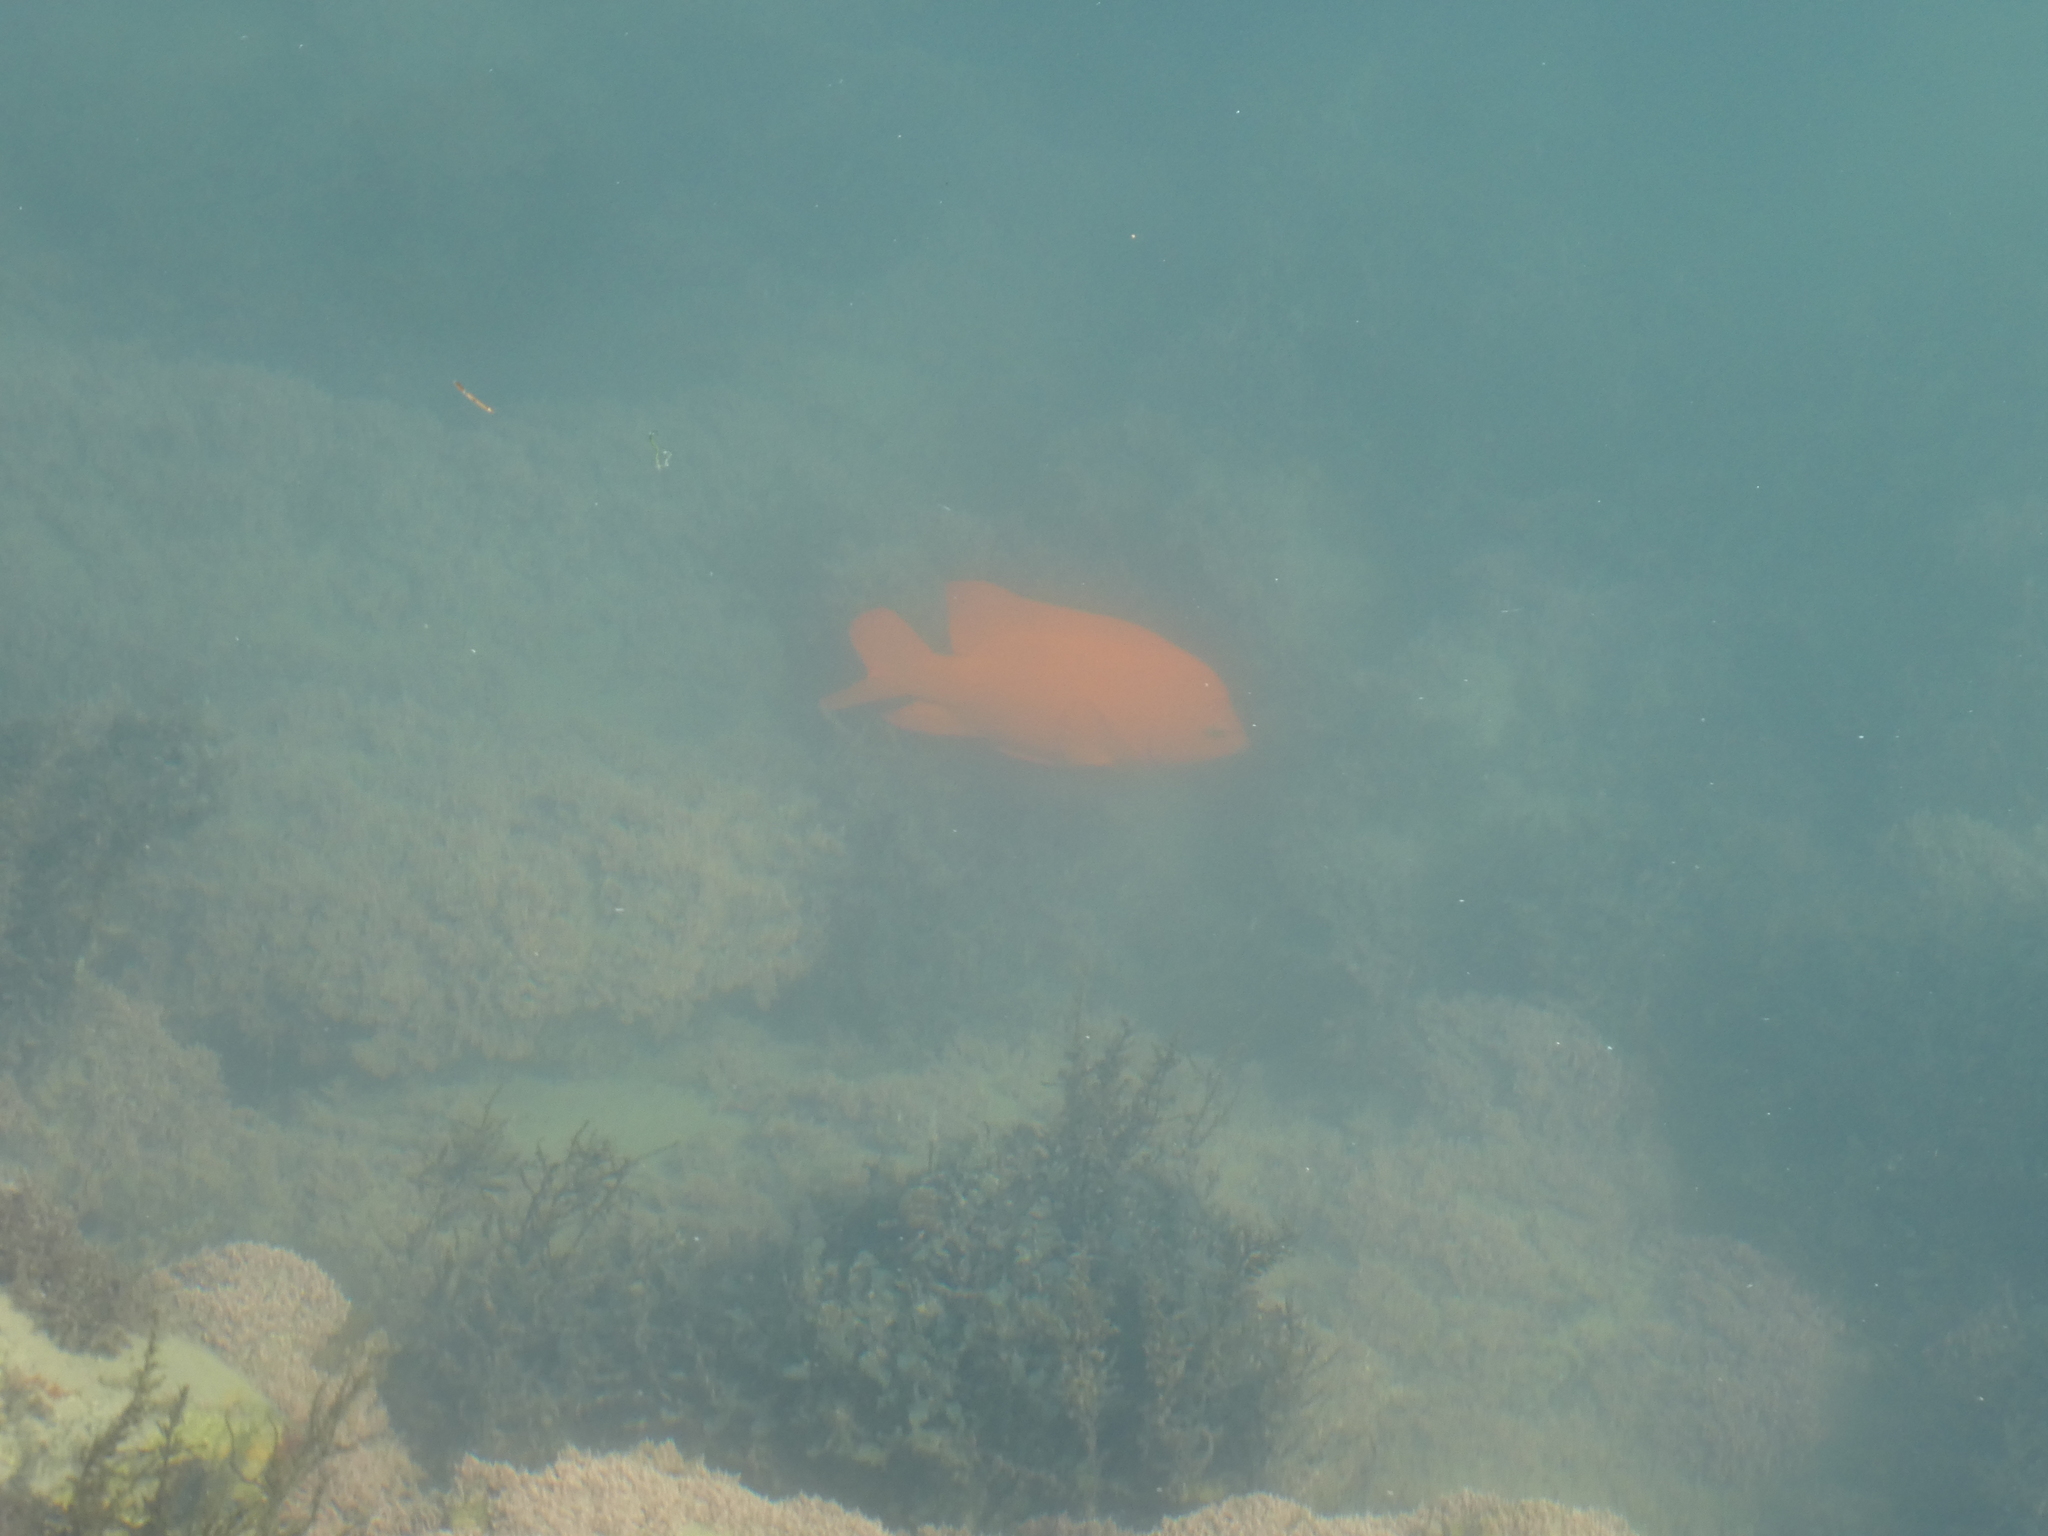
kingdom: Animalia
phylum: Chordata
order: Perciformes
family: Pomacentridae
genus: Hypsypops
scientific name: Hypsypops rubicundus
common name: Garibaldi
